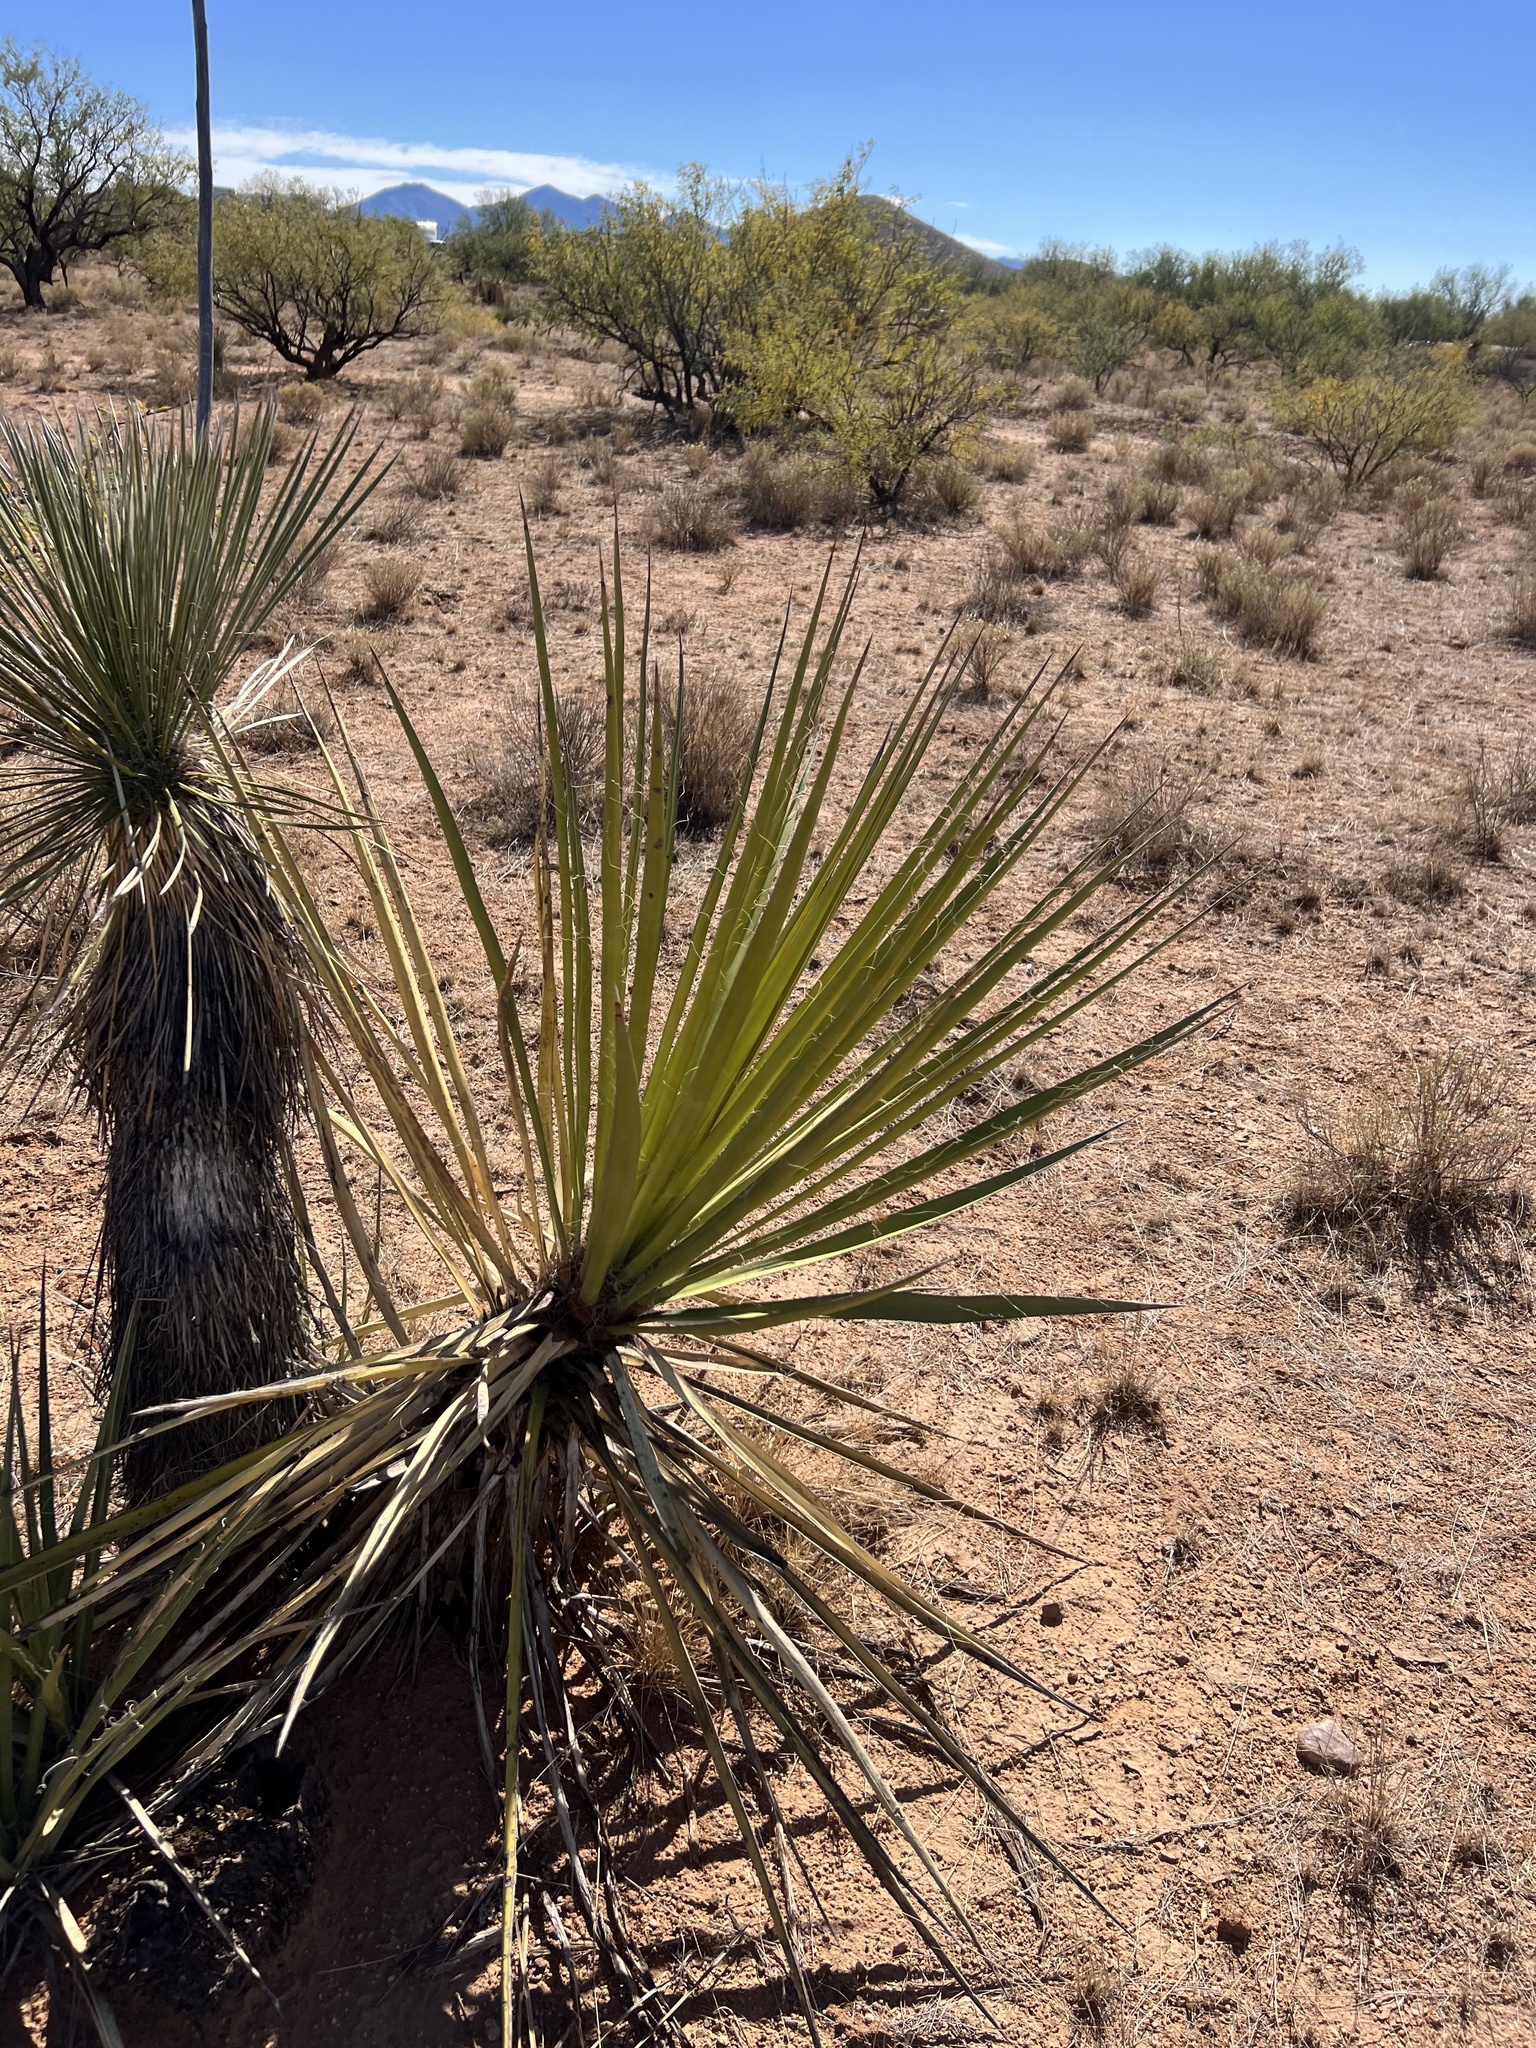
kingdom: Plantae
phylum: Tracheophyta
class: Liliopsida
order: Asparagales
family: Asparagaceae
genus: Yucca
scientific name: Yucca elata
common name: Palmella
